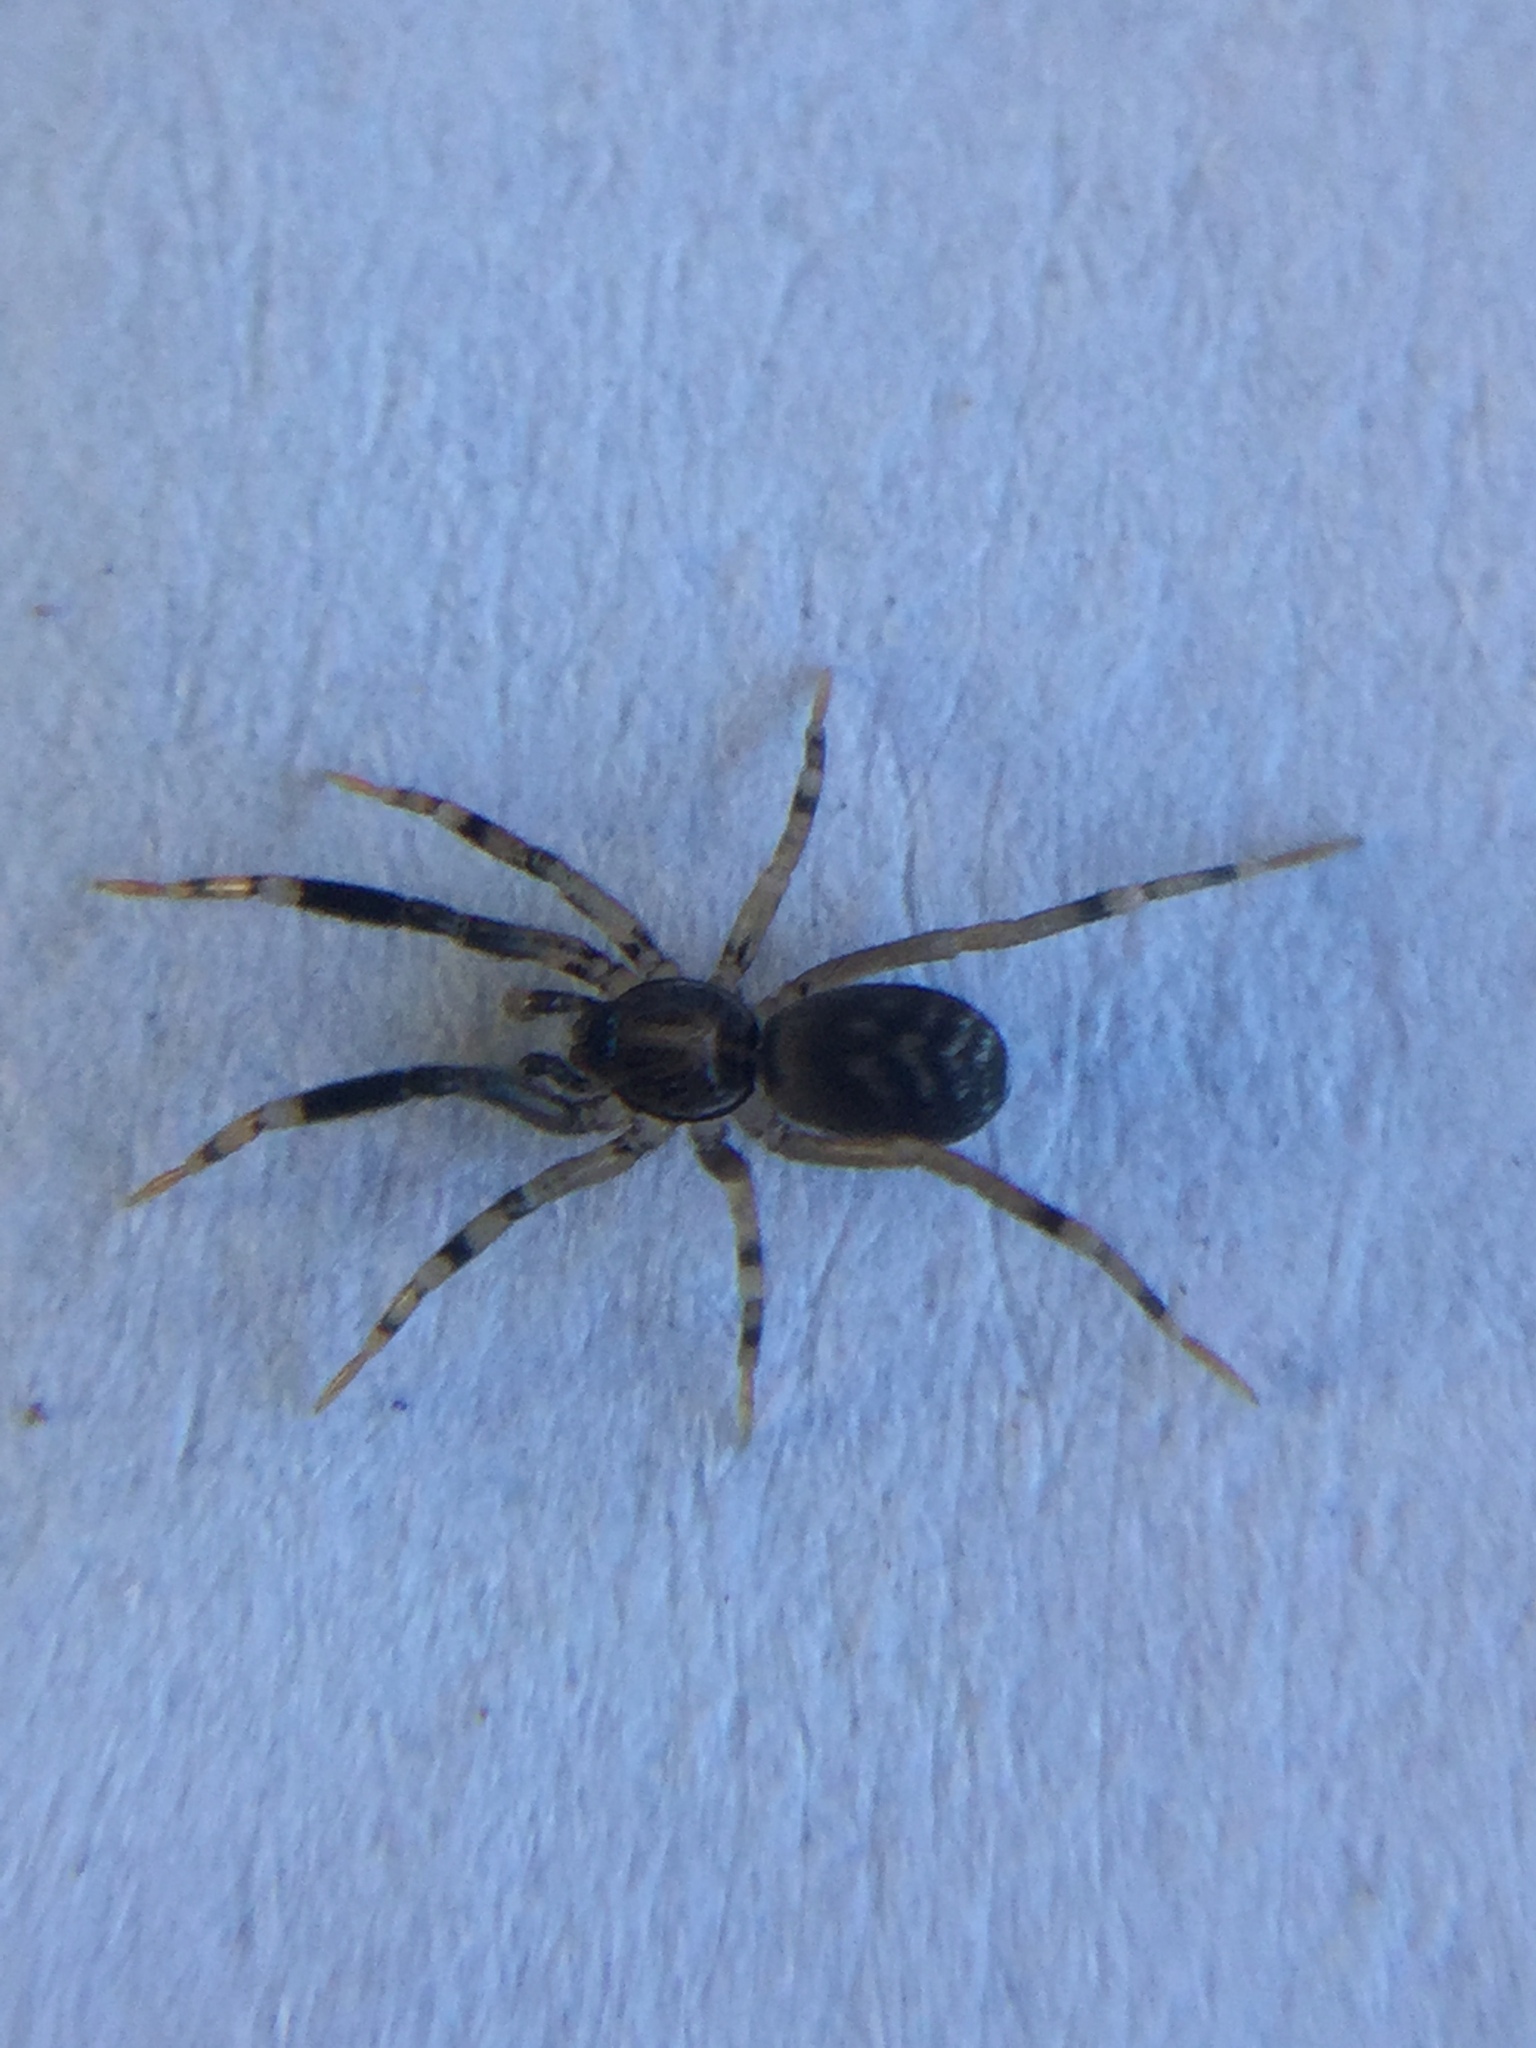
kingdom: Animalia
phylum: Arthropoda
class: Arachnida
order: Araneae
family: Phrurolithidae
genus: Phrurotimpus
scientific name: Phrurotimpus borealis
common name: Greater ant-mimic corinne spider
